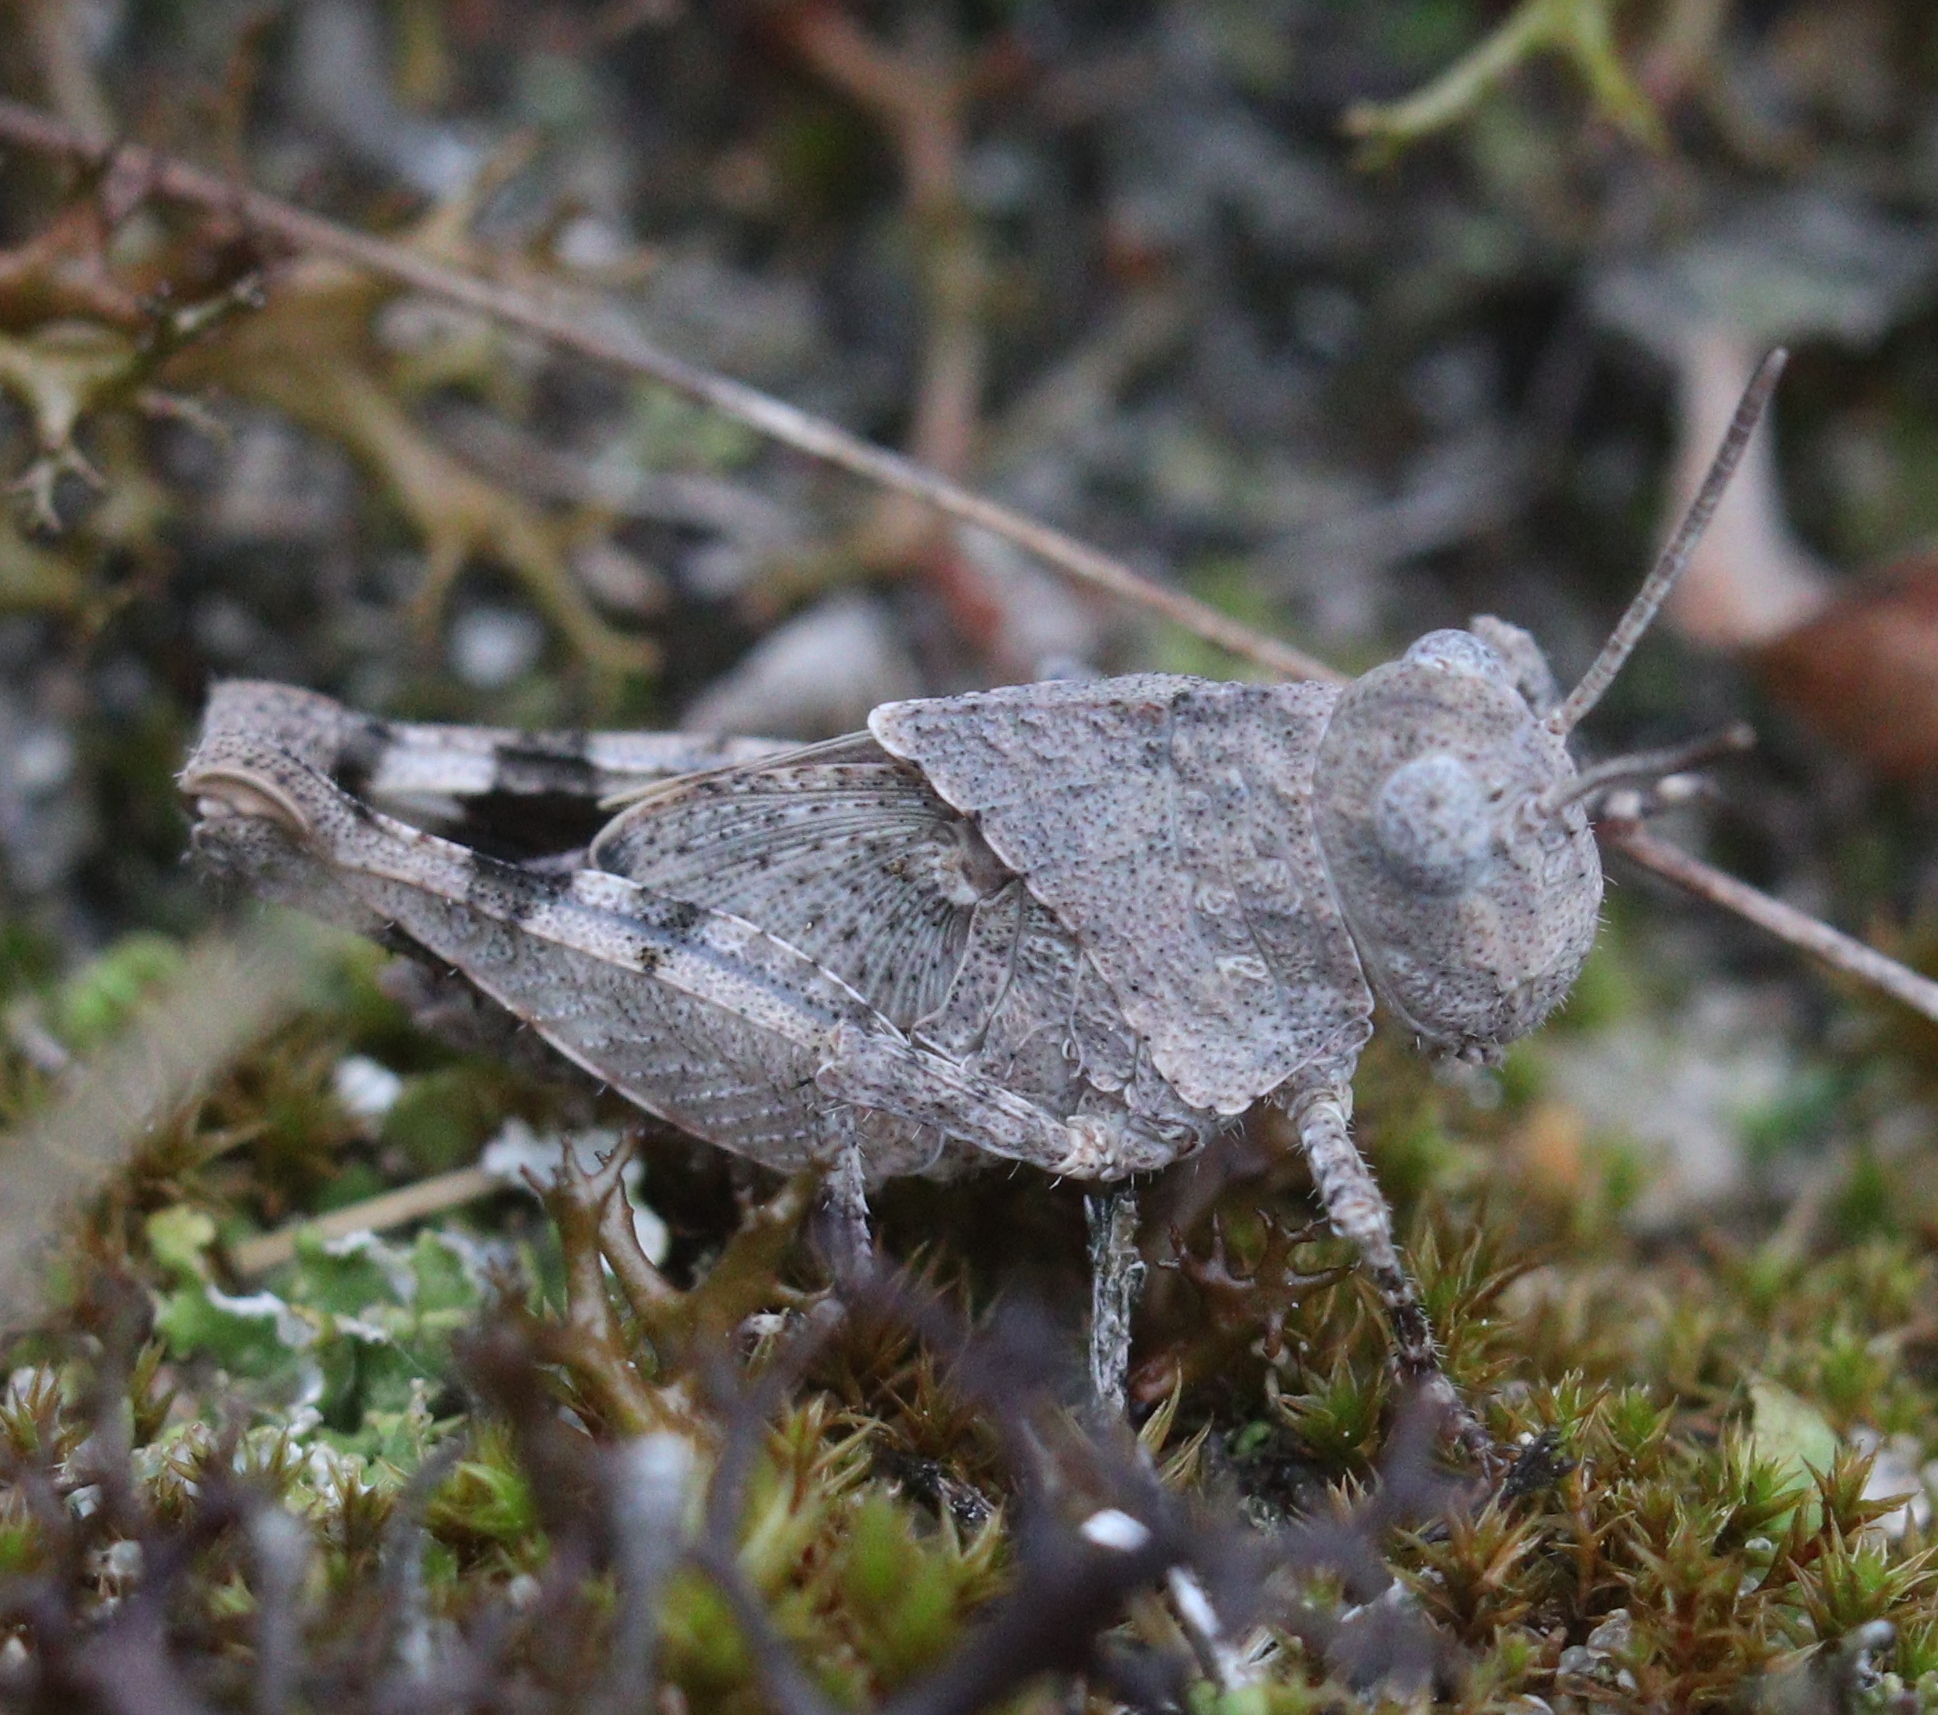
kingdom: Animalia
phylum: Arthropoda
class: Insecta
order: Orthoptera
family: Acrididae
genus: Oedipoda
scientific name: Oedipoda caerulescens
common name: Blue-winged grasshopper
